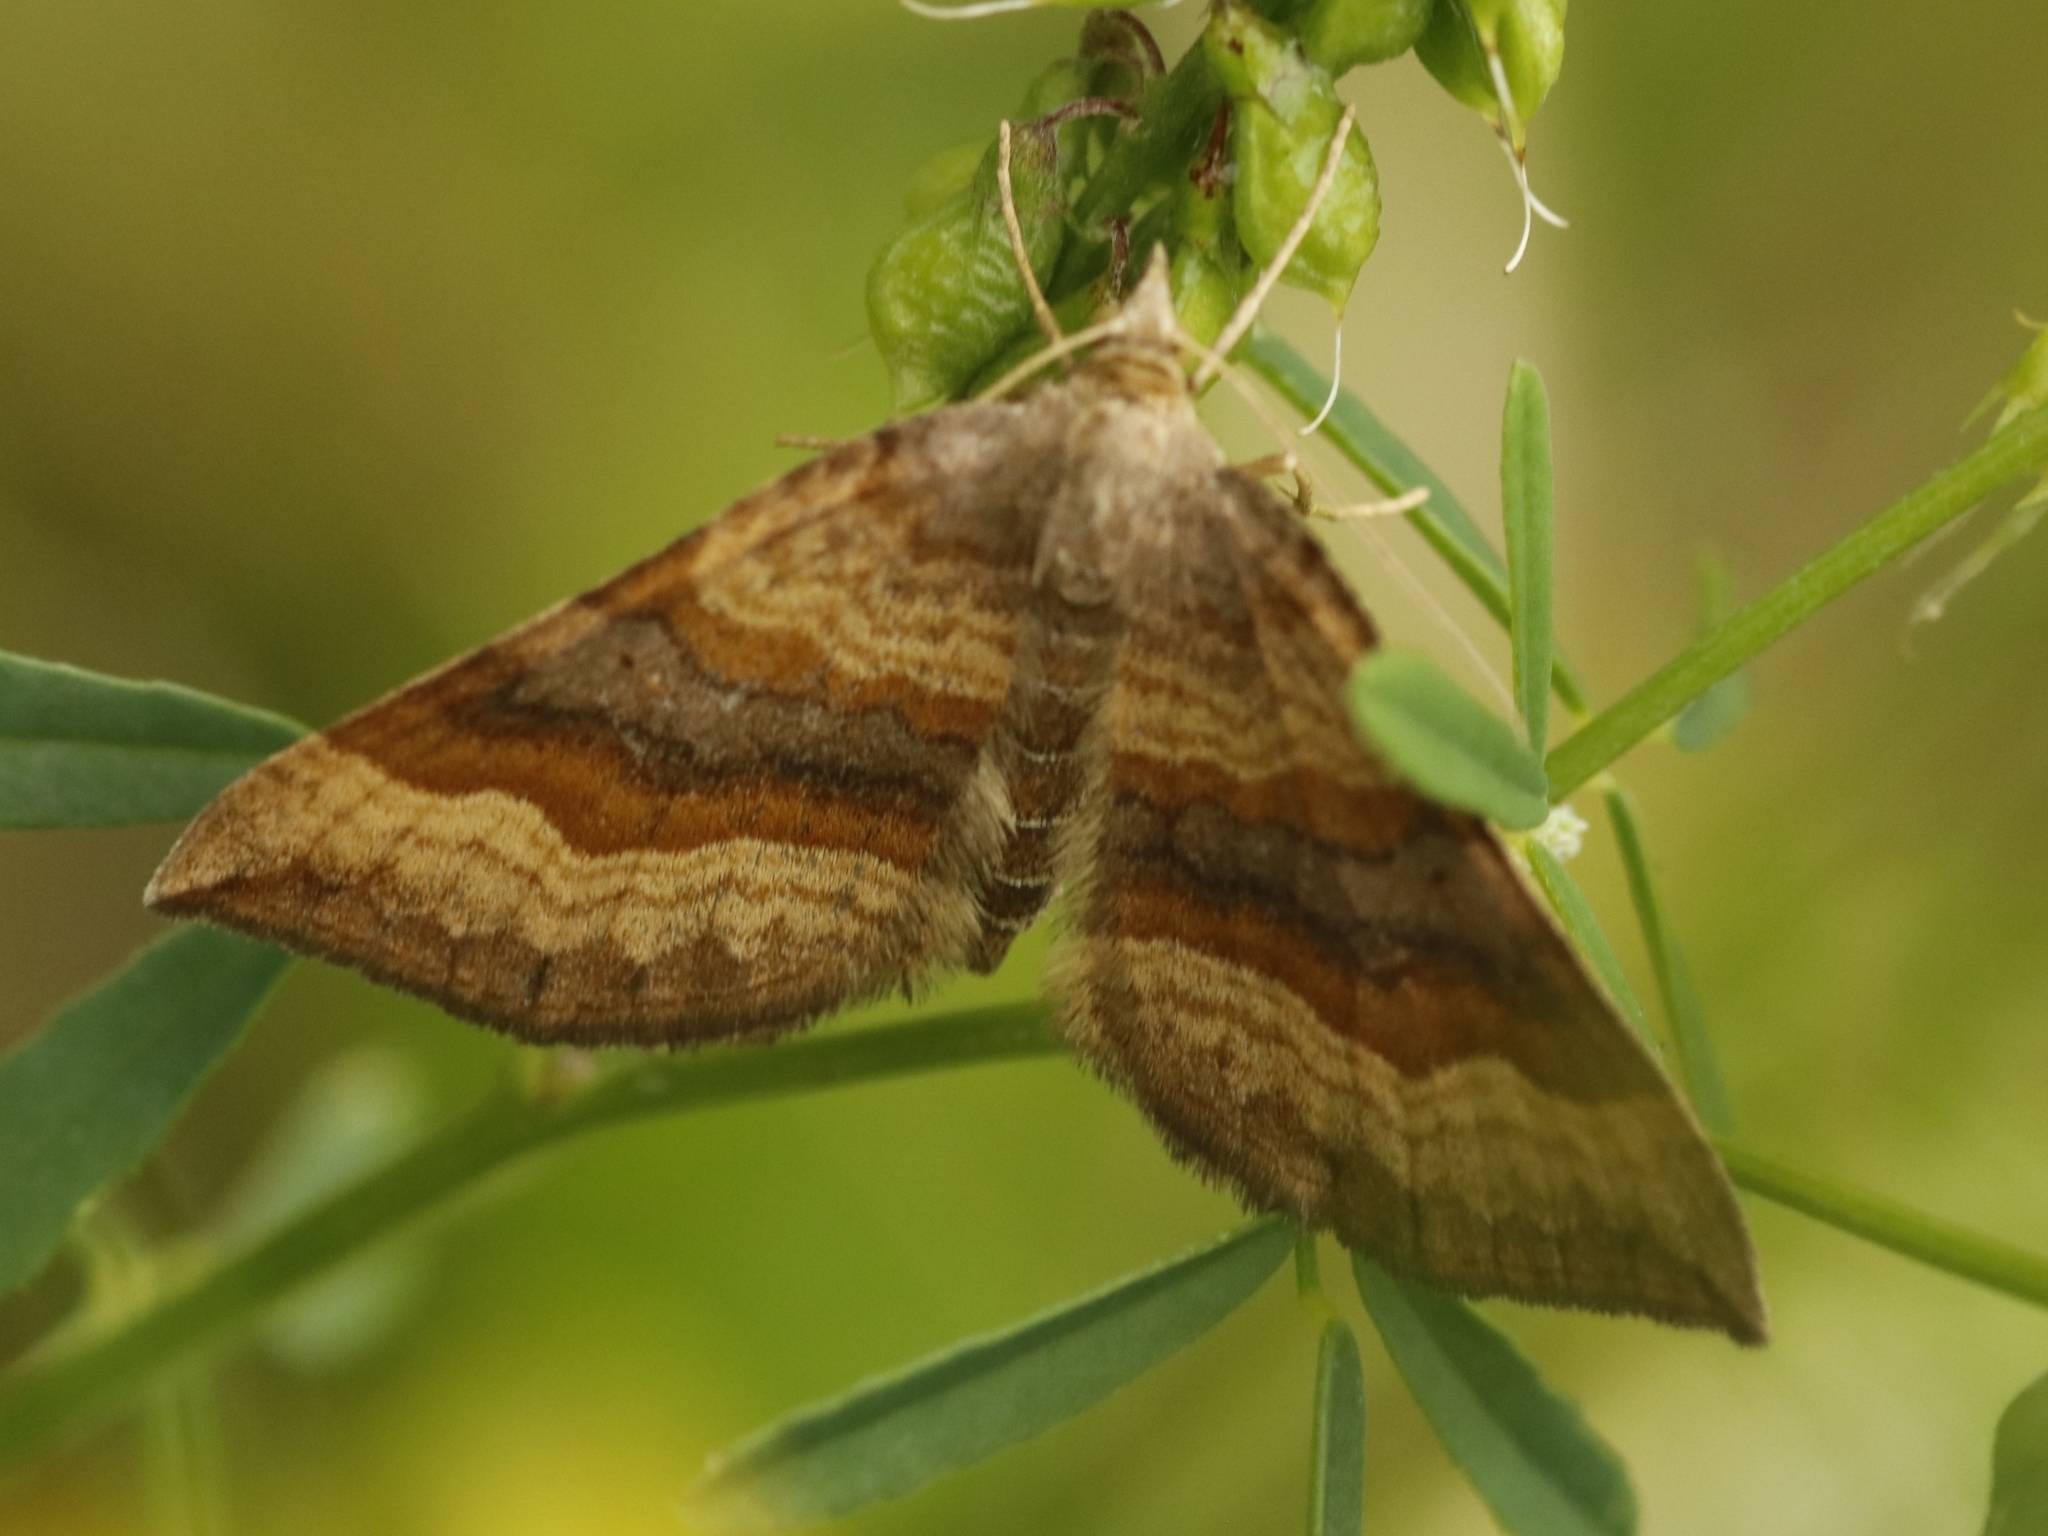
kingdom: Animalia
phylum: Arthropoda
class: Insecta
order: Lepidoptera
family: Geometridae
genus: Scotopteryx
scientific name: Scotopteryx chenopodiata
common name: Shaded broad-bar
